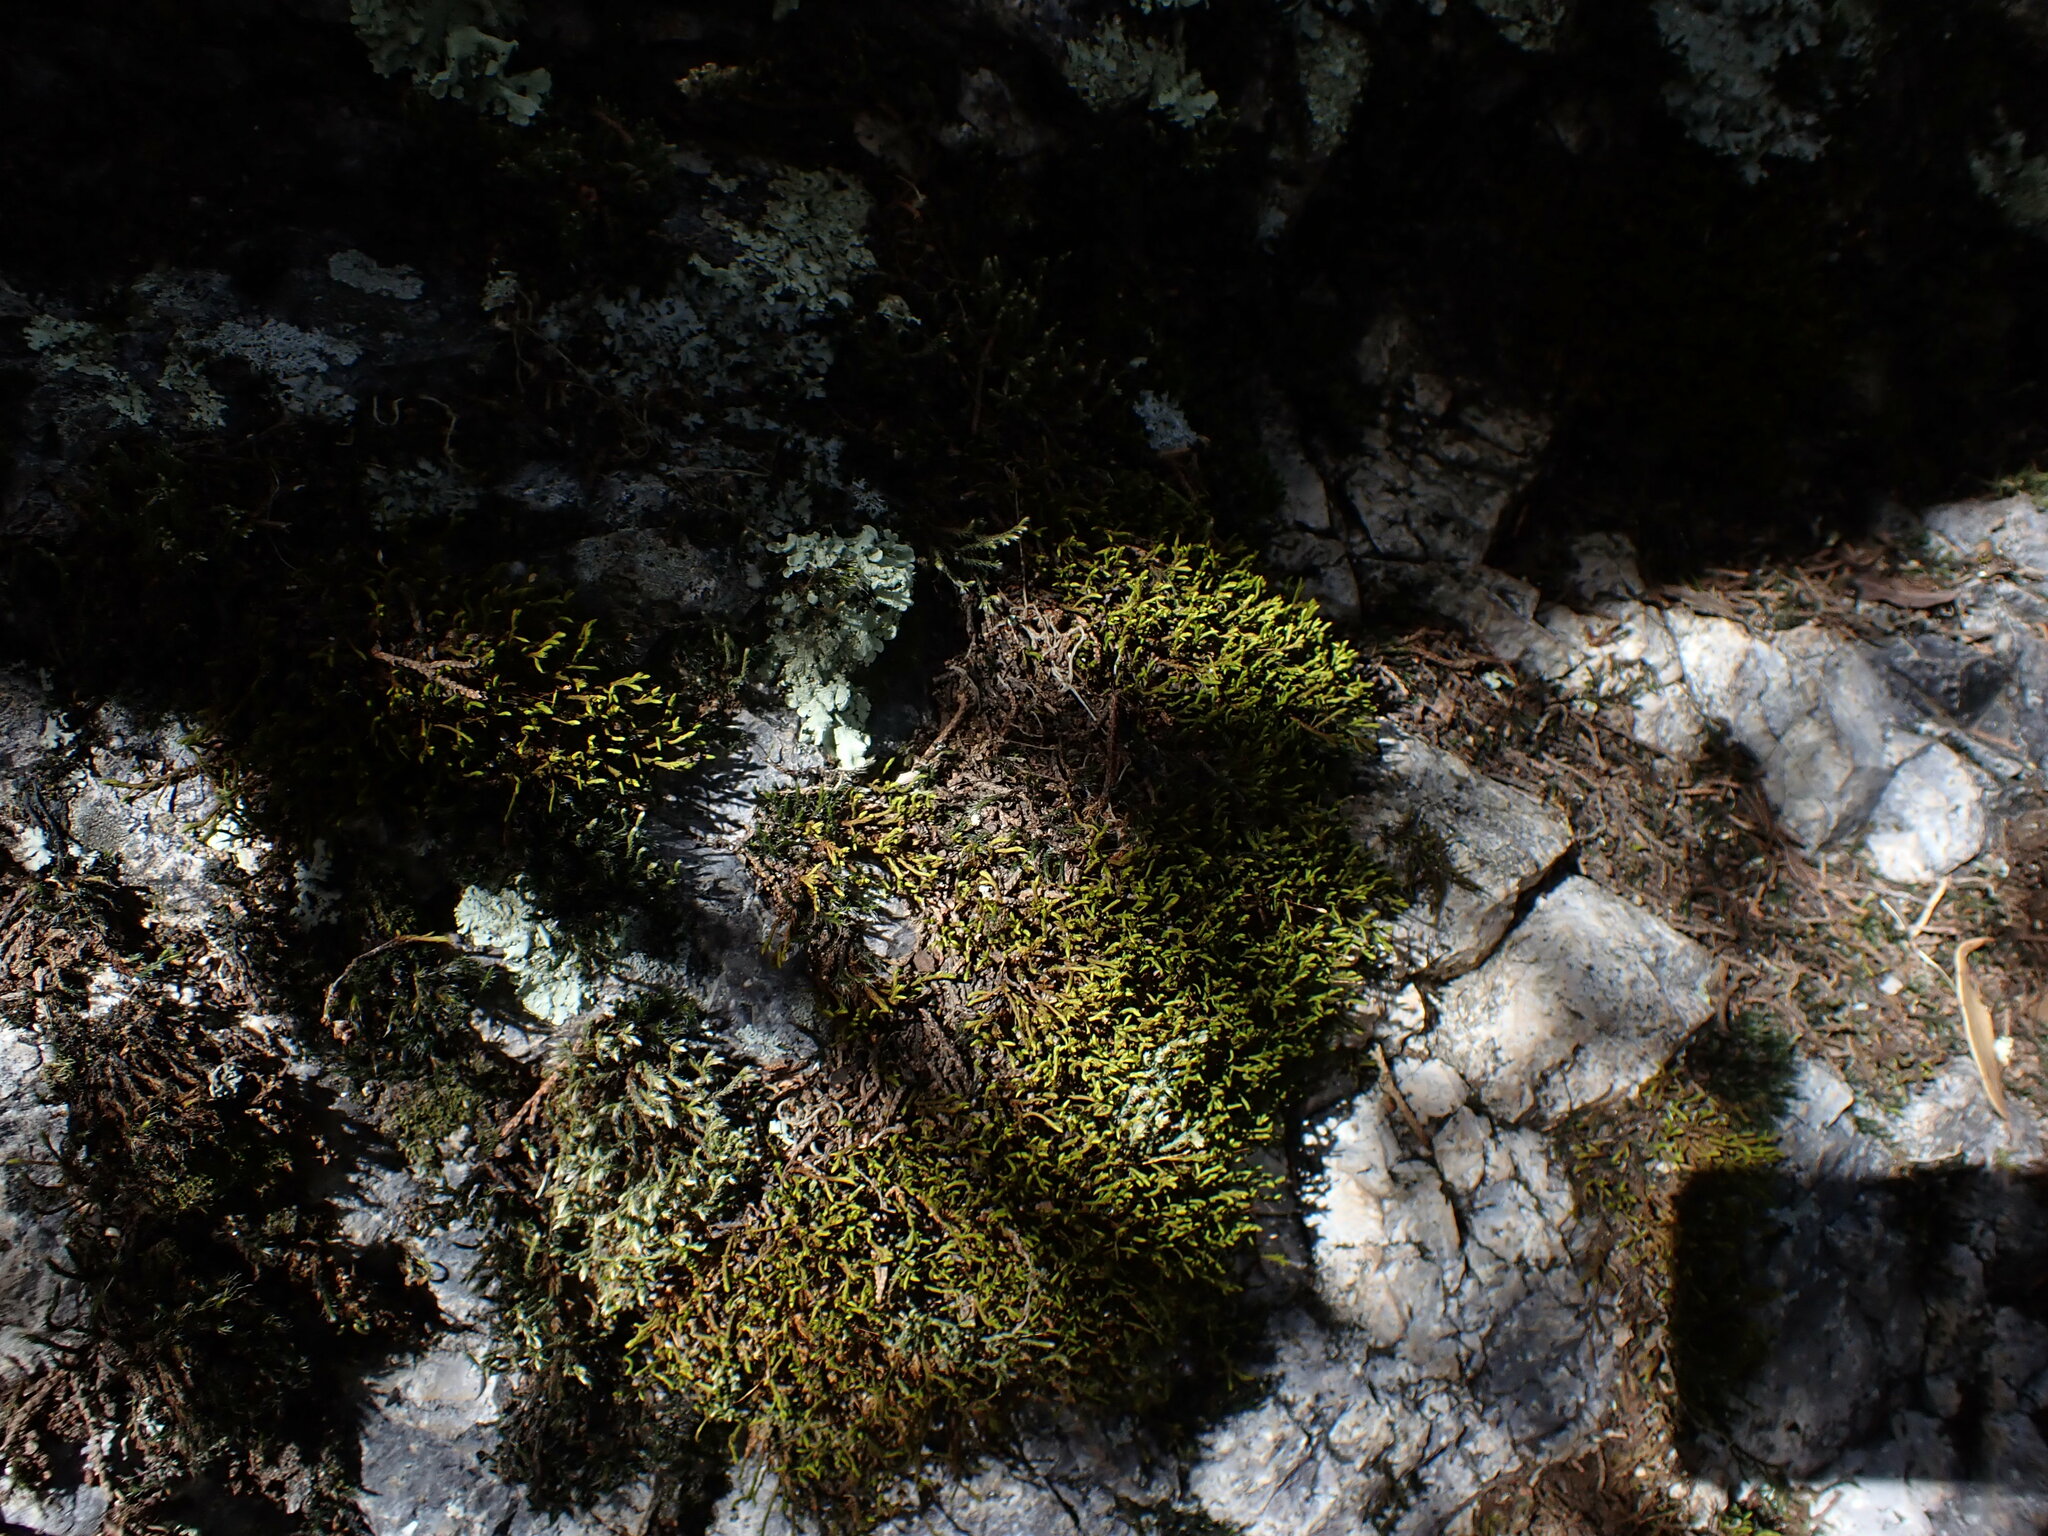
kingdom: Plantae
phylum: Bryophyta
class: Bryopsida
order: Hedwigiales
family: Hedwigiaceae
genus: Braunia
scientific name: Braunia andrieuxii
